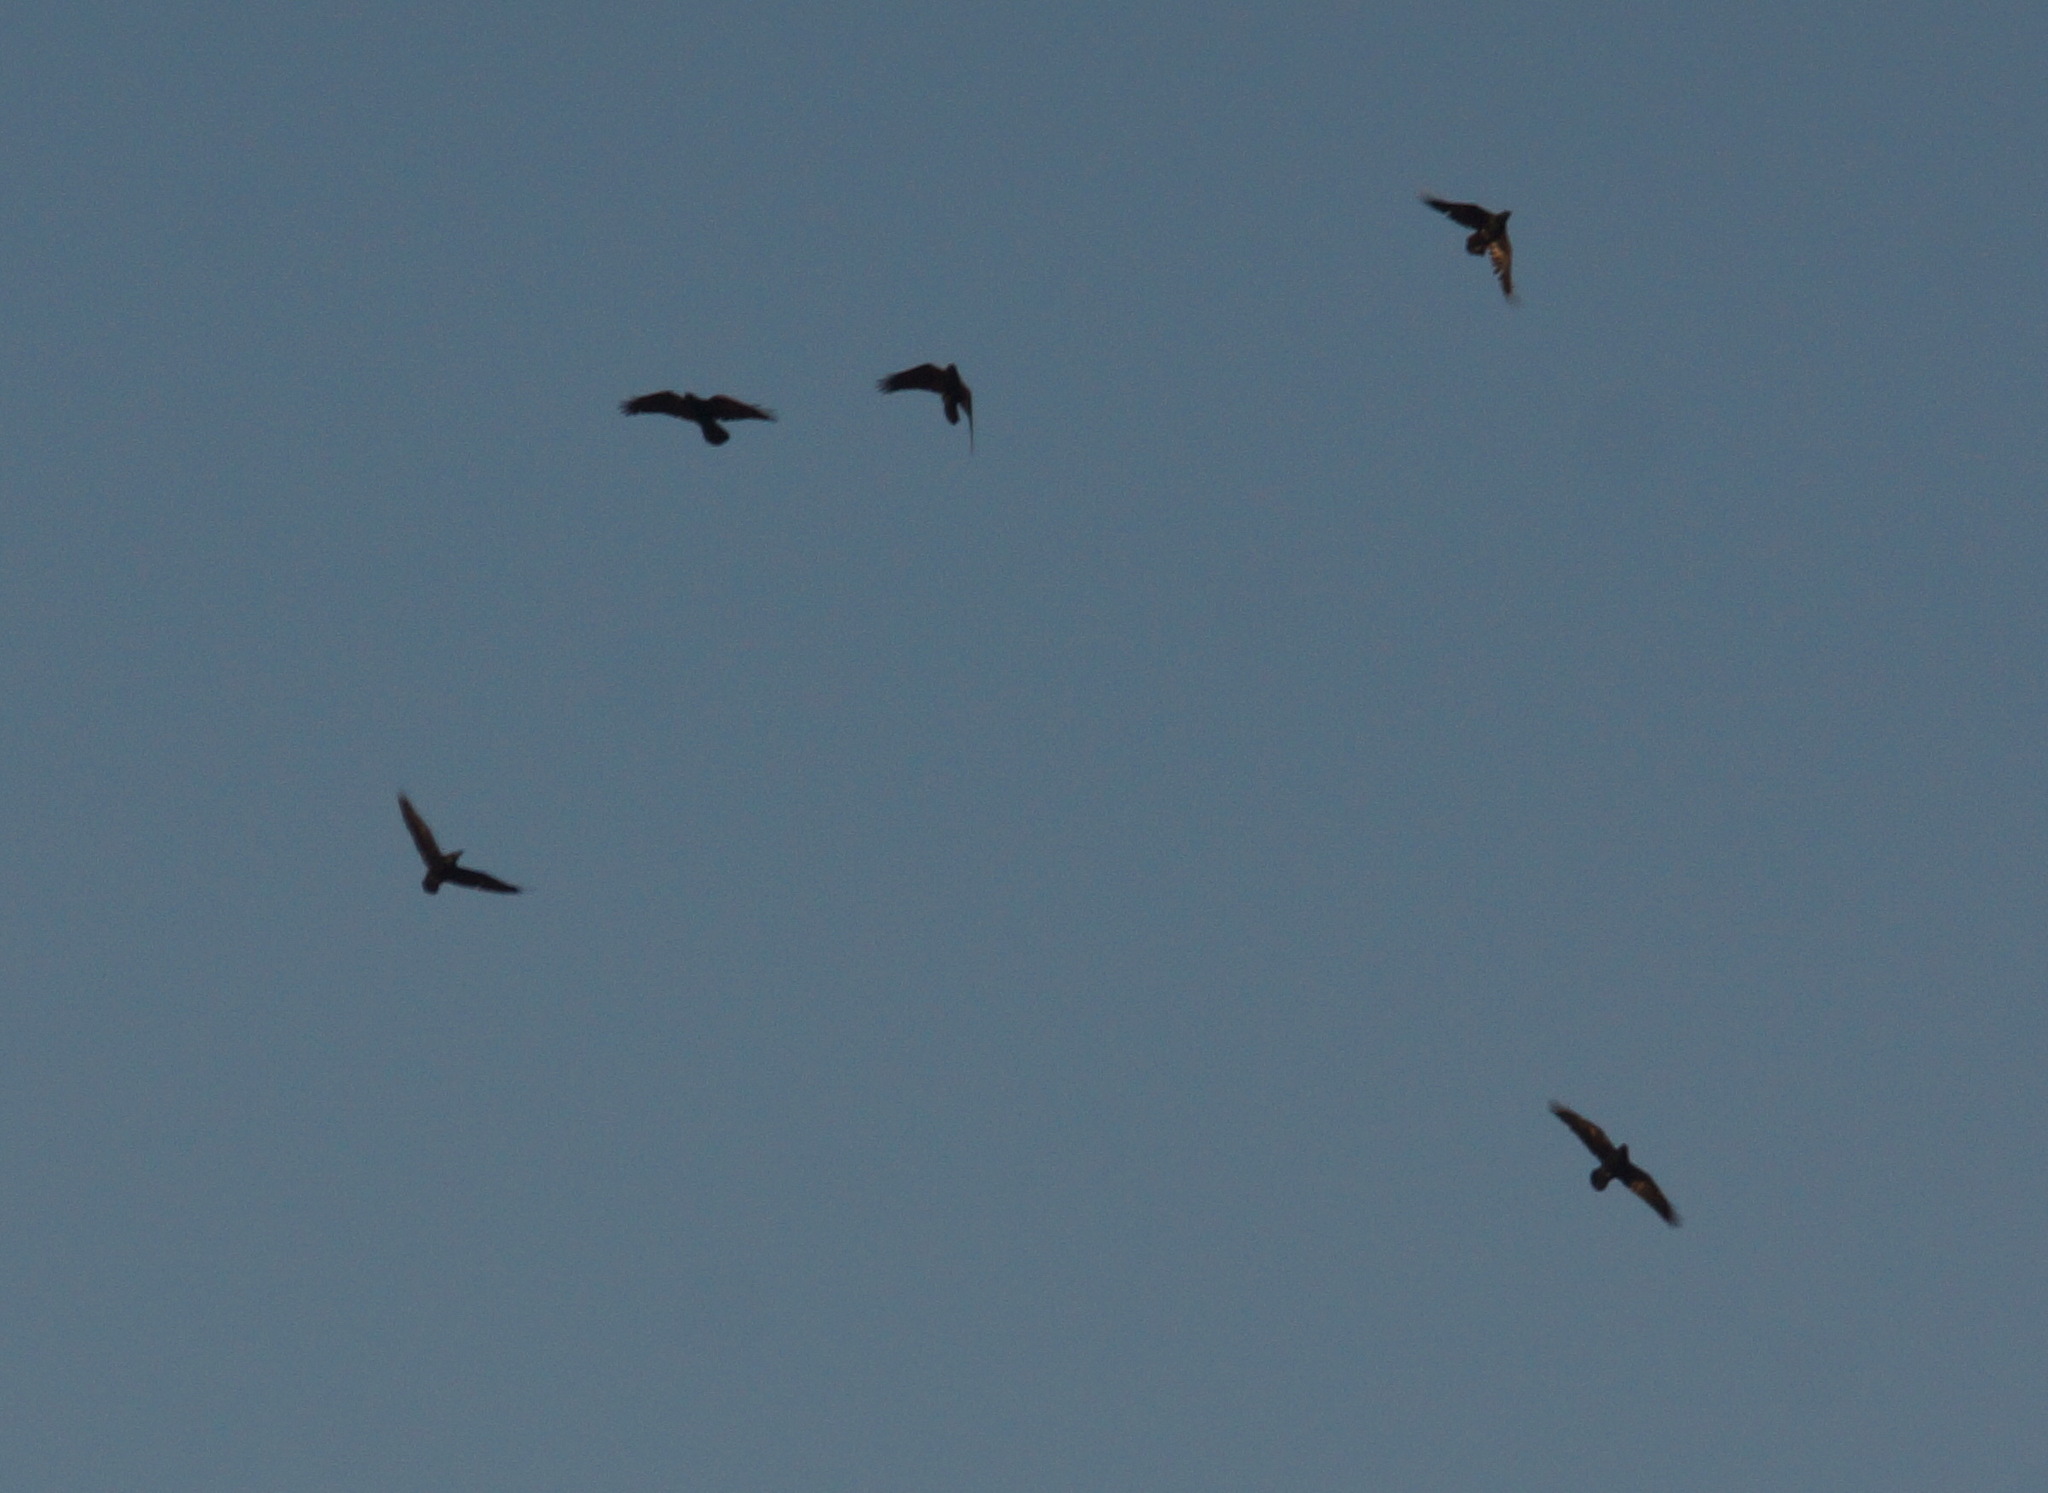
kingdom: Animalia
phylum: Chordata
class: Aves
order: Passeriformes
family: Corvidae
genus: Corvus
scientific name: Corvus corax
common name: Common raven
